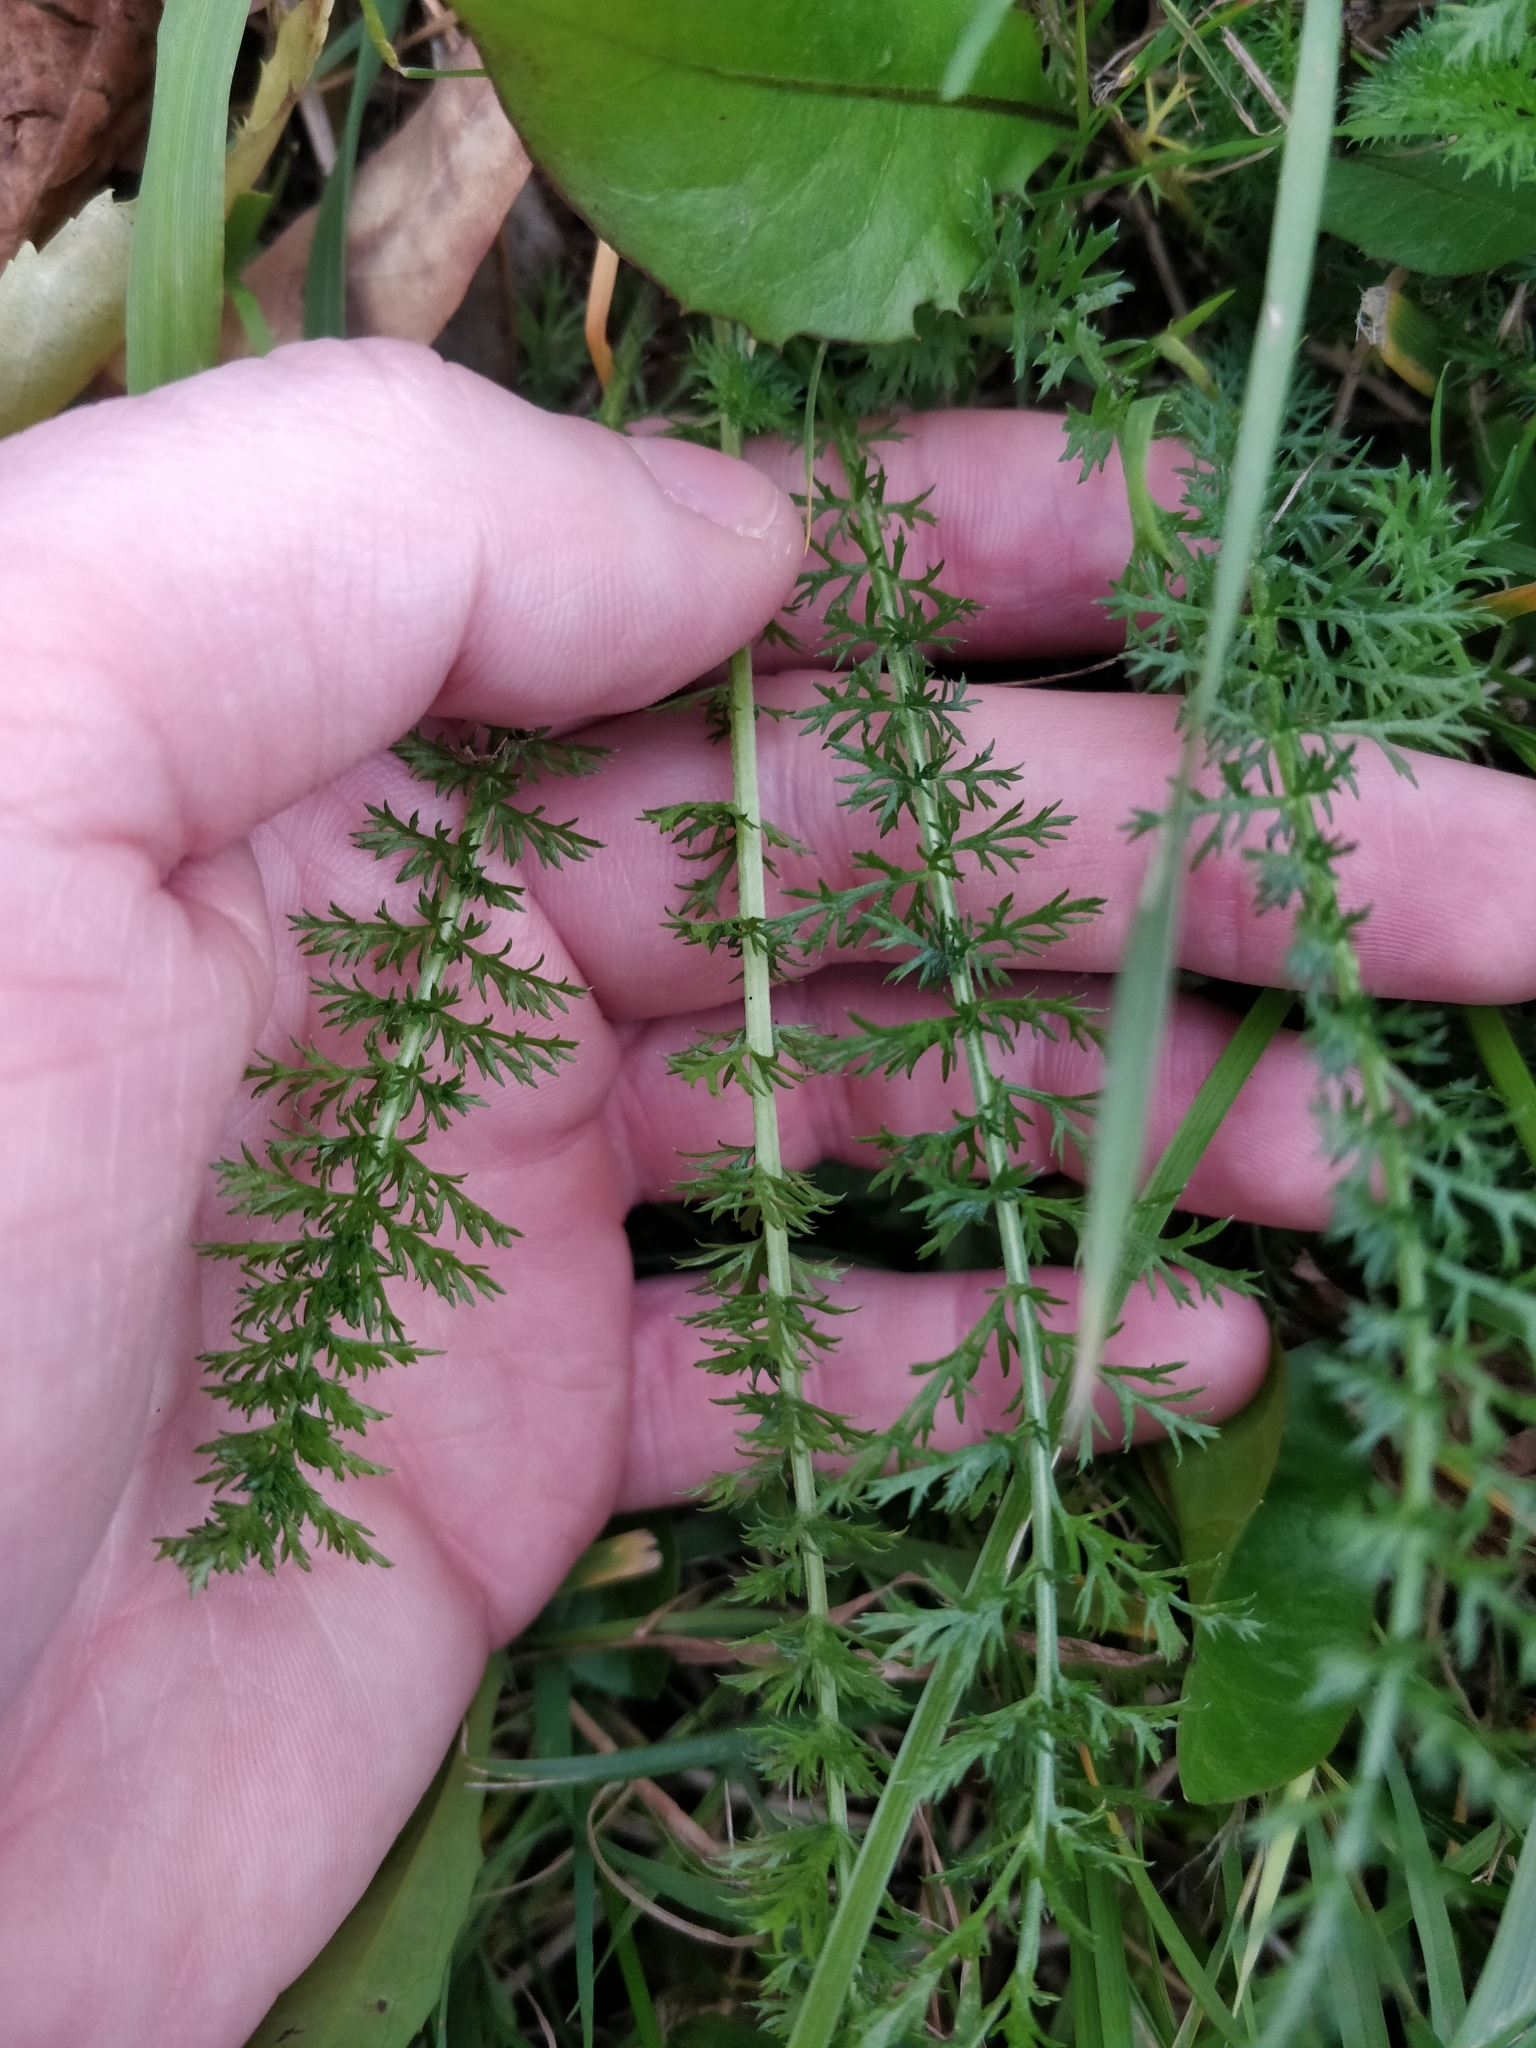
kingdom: Plantae
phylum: Tracheophyta
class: Magnoliopsida
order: Asterales
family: Asteraceae
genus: Achillea
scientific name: Achillea millefolium
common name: Yarrow
